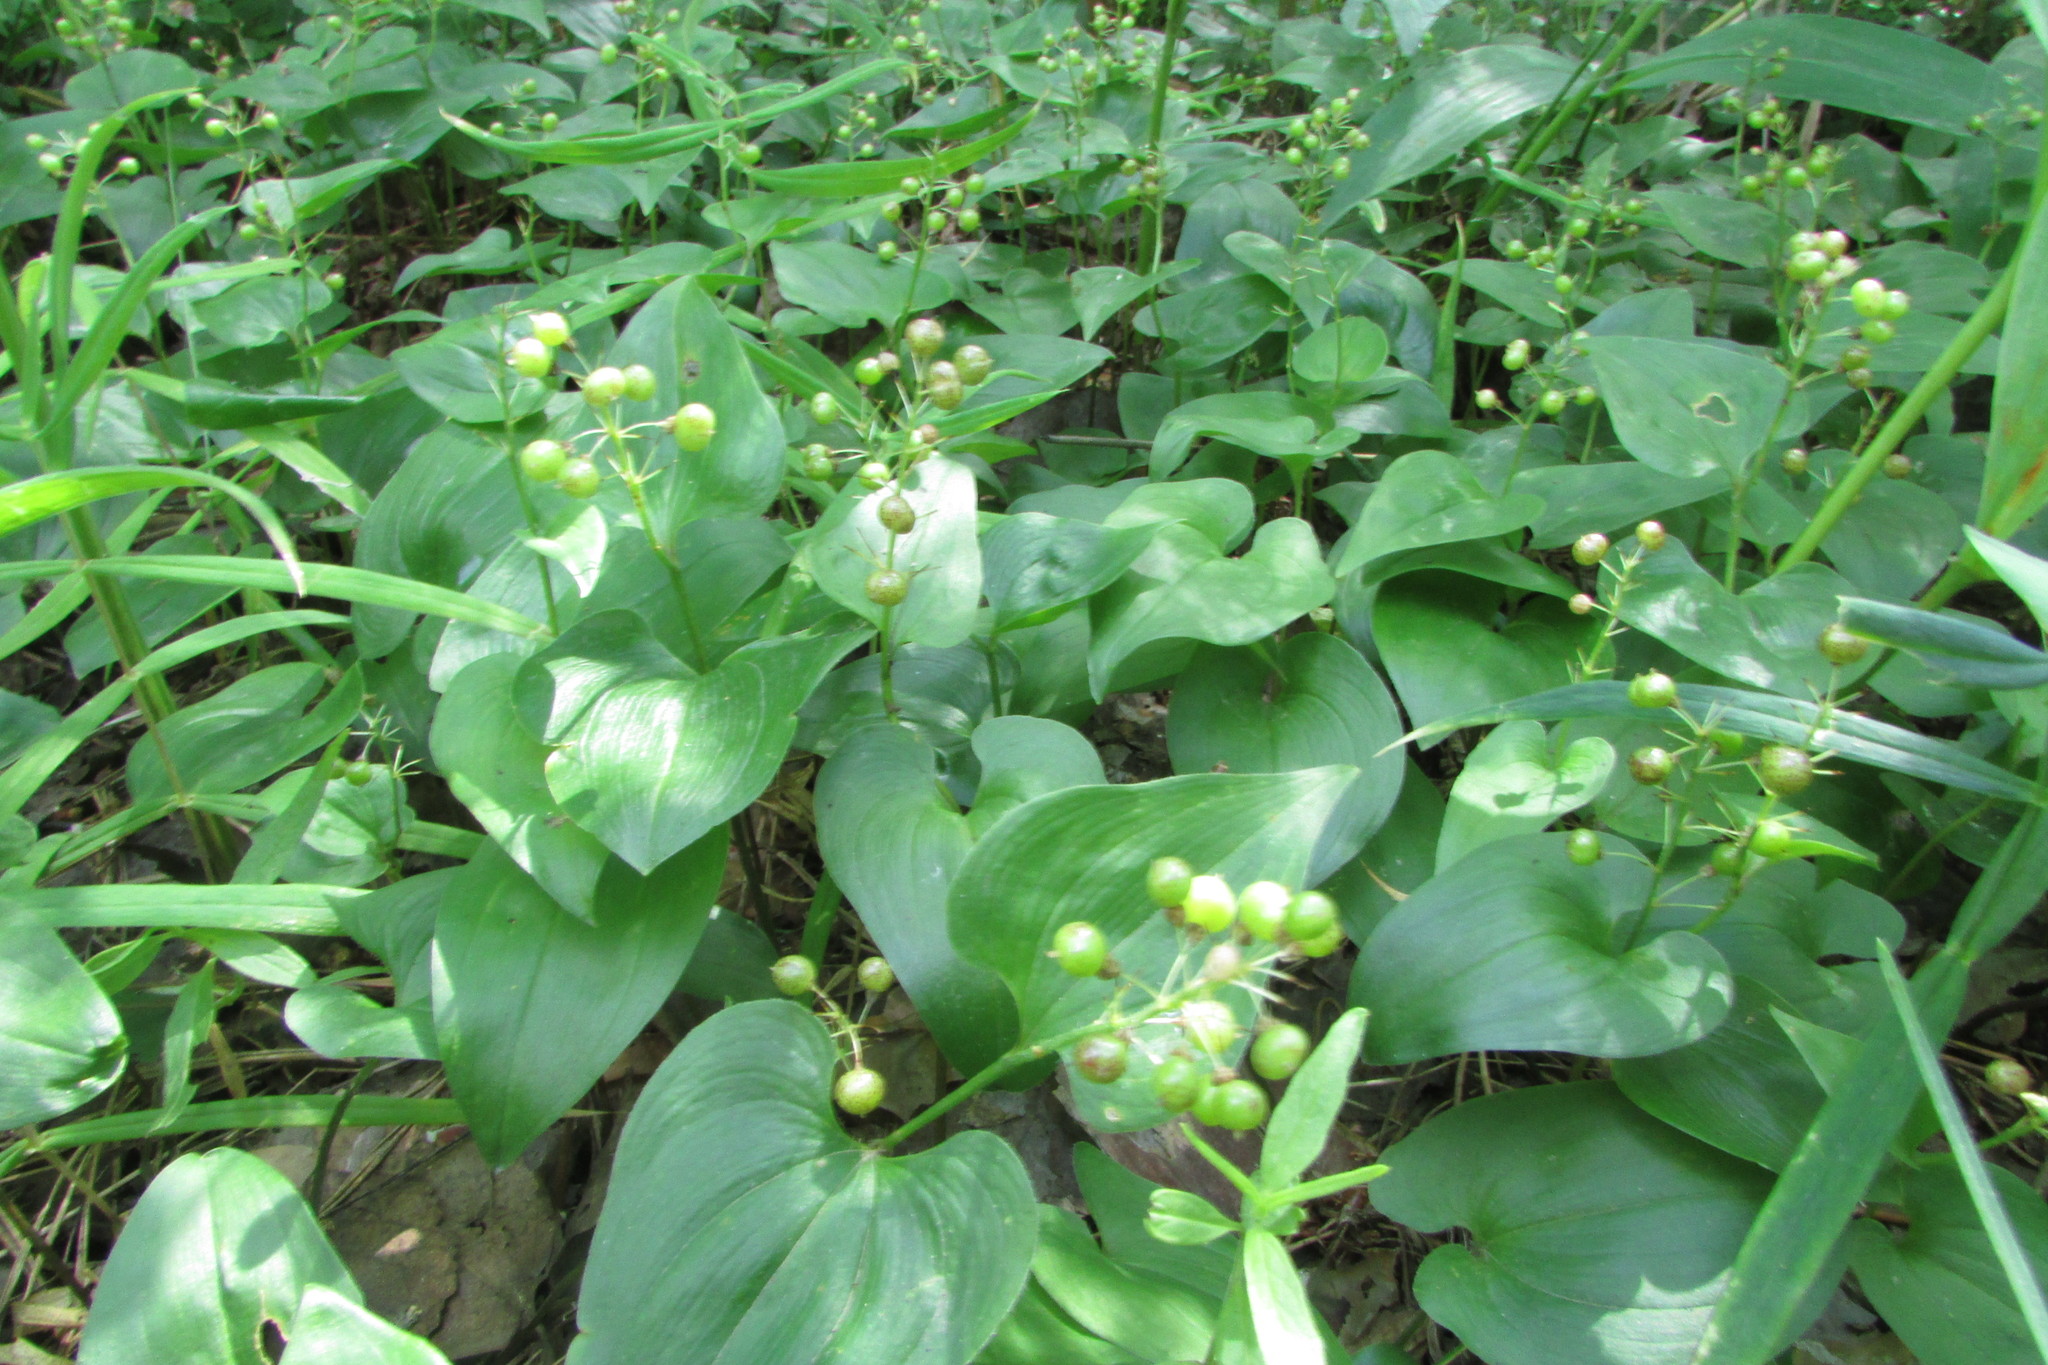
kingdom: Plantae
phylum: Tracheophyta
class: Liliopsida
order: Asparagales
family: Asparagaceae
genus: Maianthemum
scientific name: Maianthemum bifolium
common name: May lily
